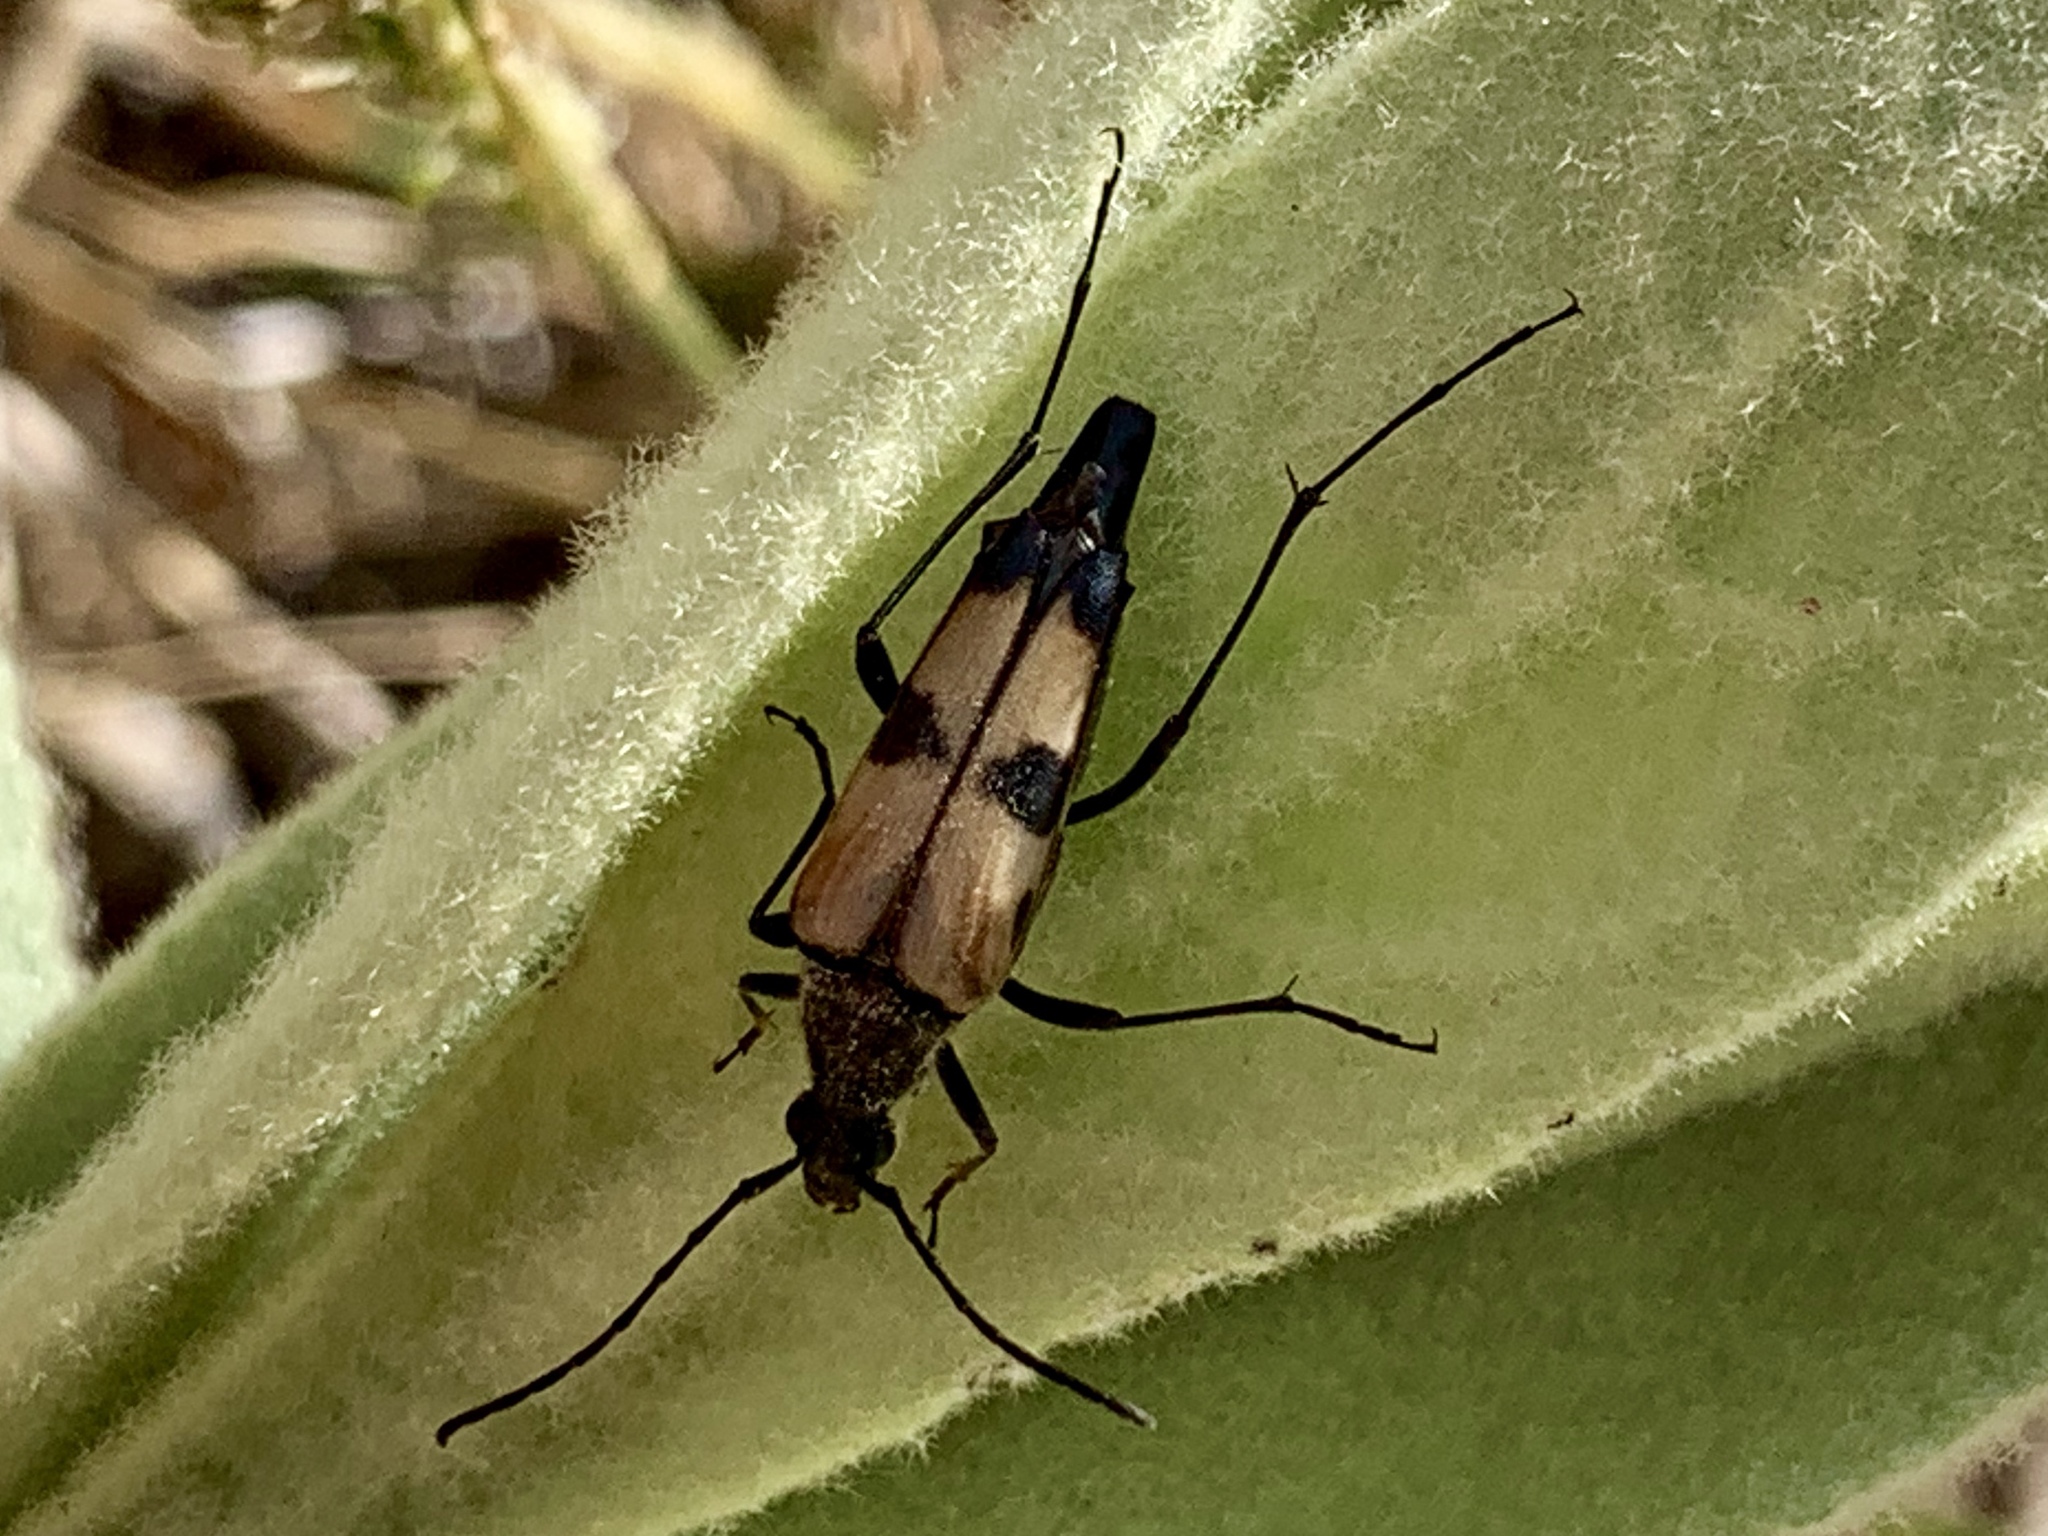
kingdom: Animalia
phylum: Arthropoda
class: Insecta
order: Coleoptera
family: Cerambycidae
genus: Etorofus
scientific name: Etorofus
